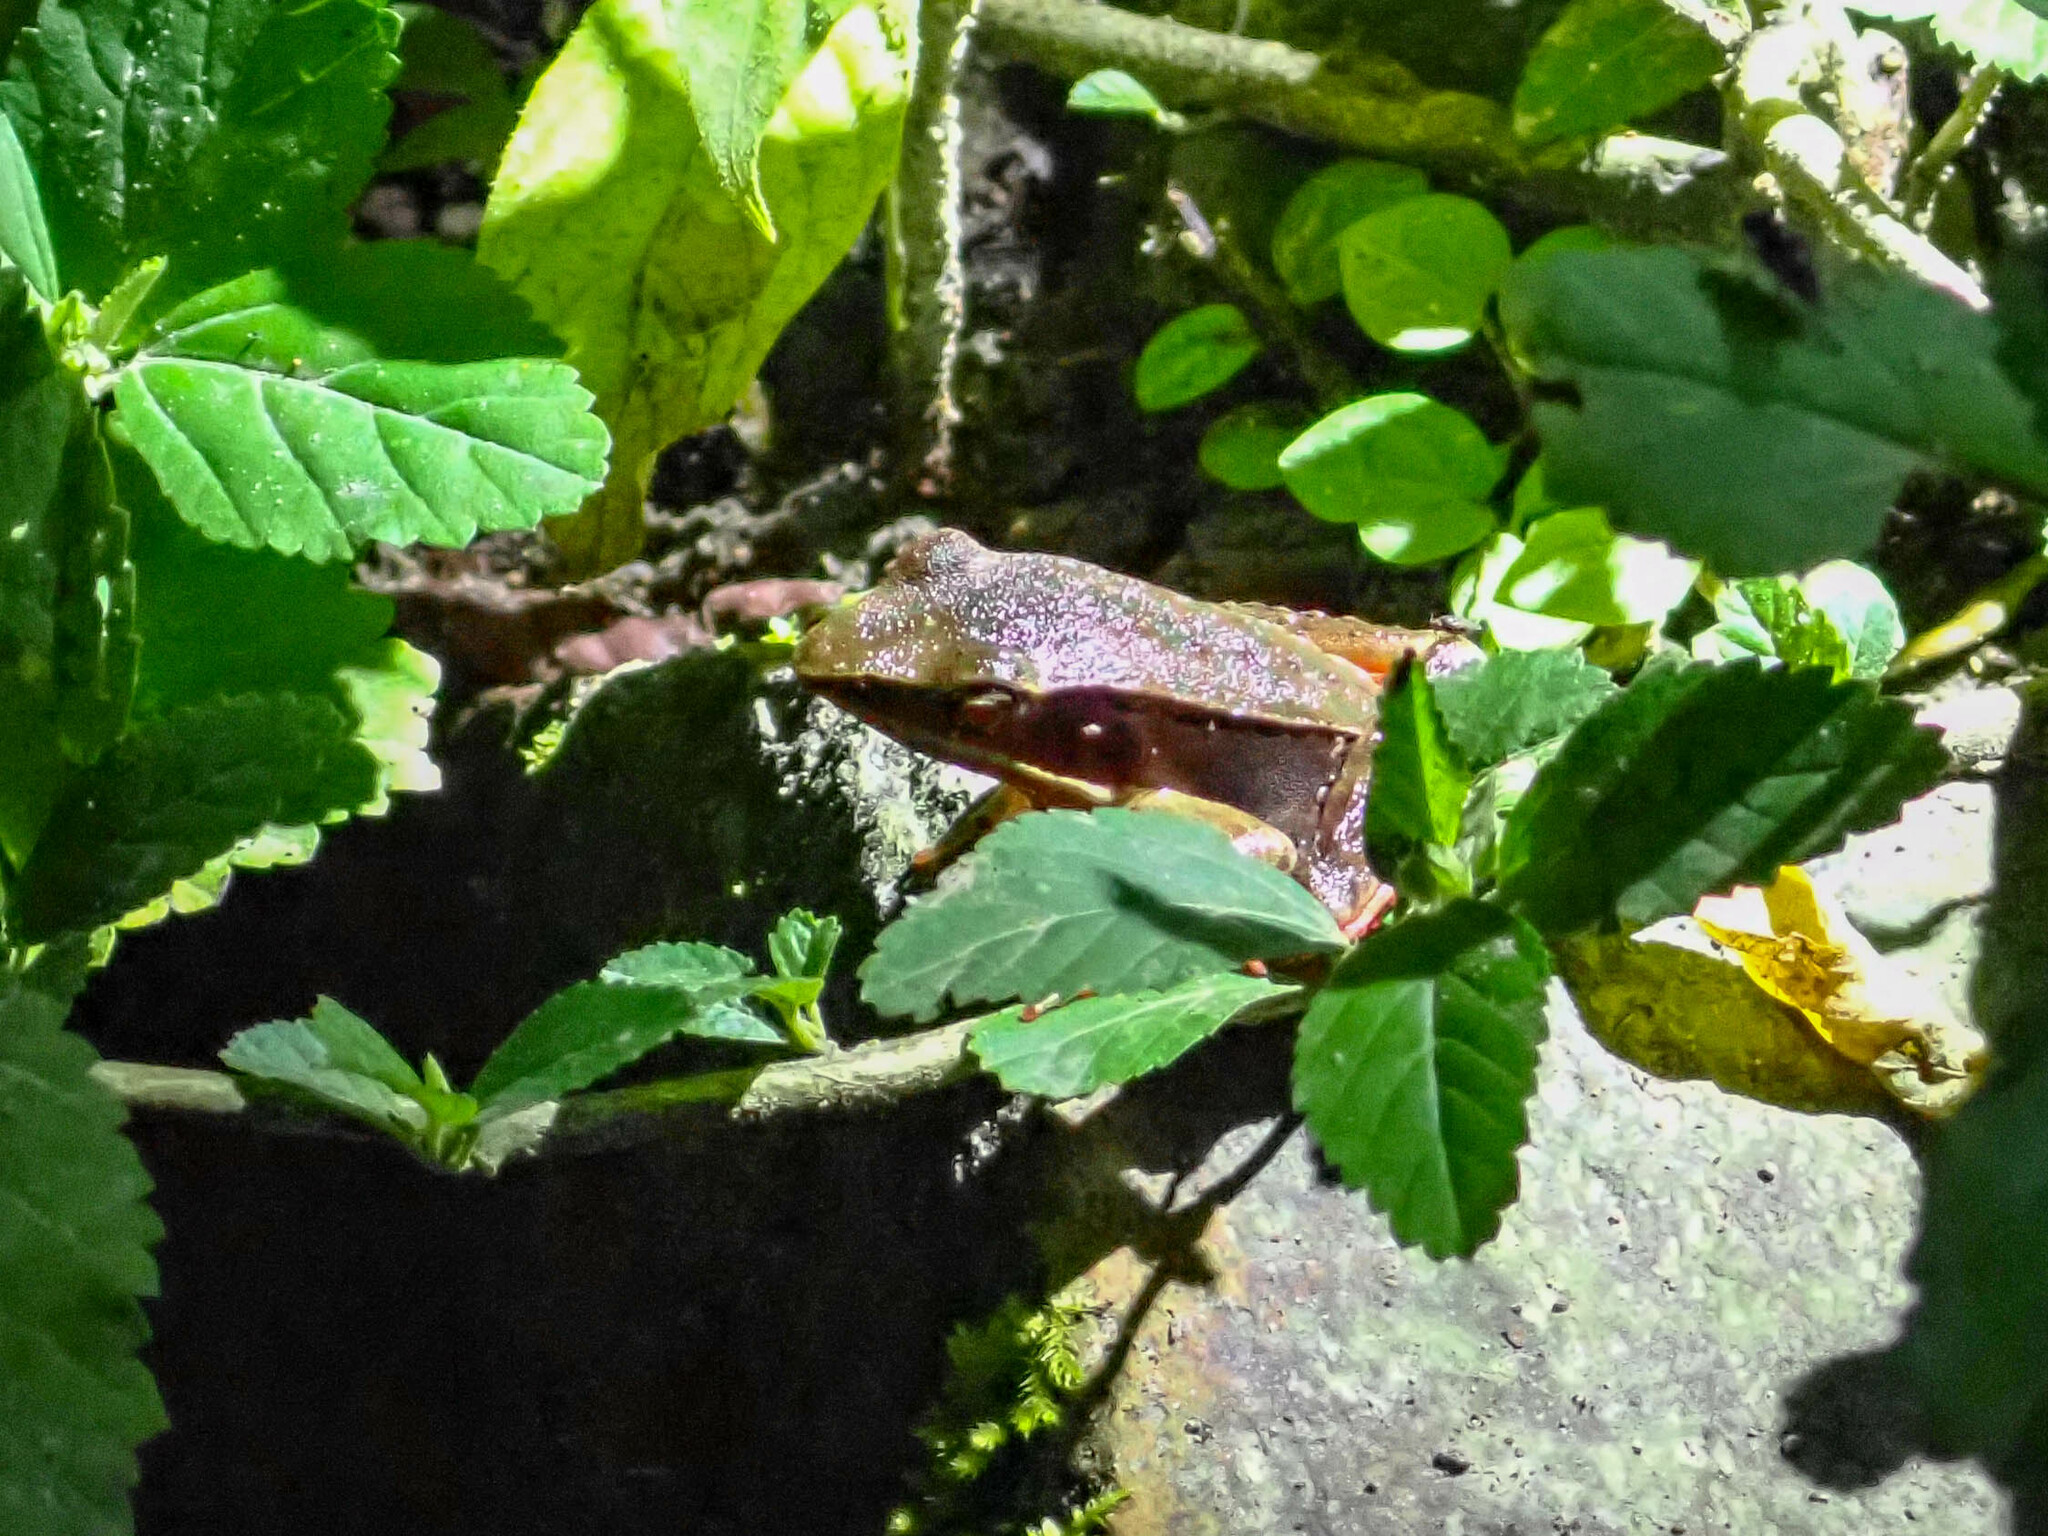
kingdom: Animalia
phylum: Chordata
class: Amphibia
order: Anura
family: Ranidae
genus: Lithobates
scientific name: Lithobates warszewitschii
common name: Warszewitsch's frog
